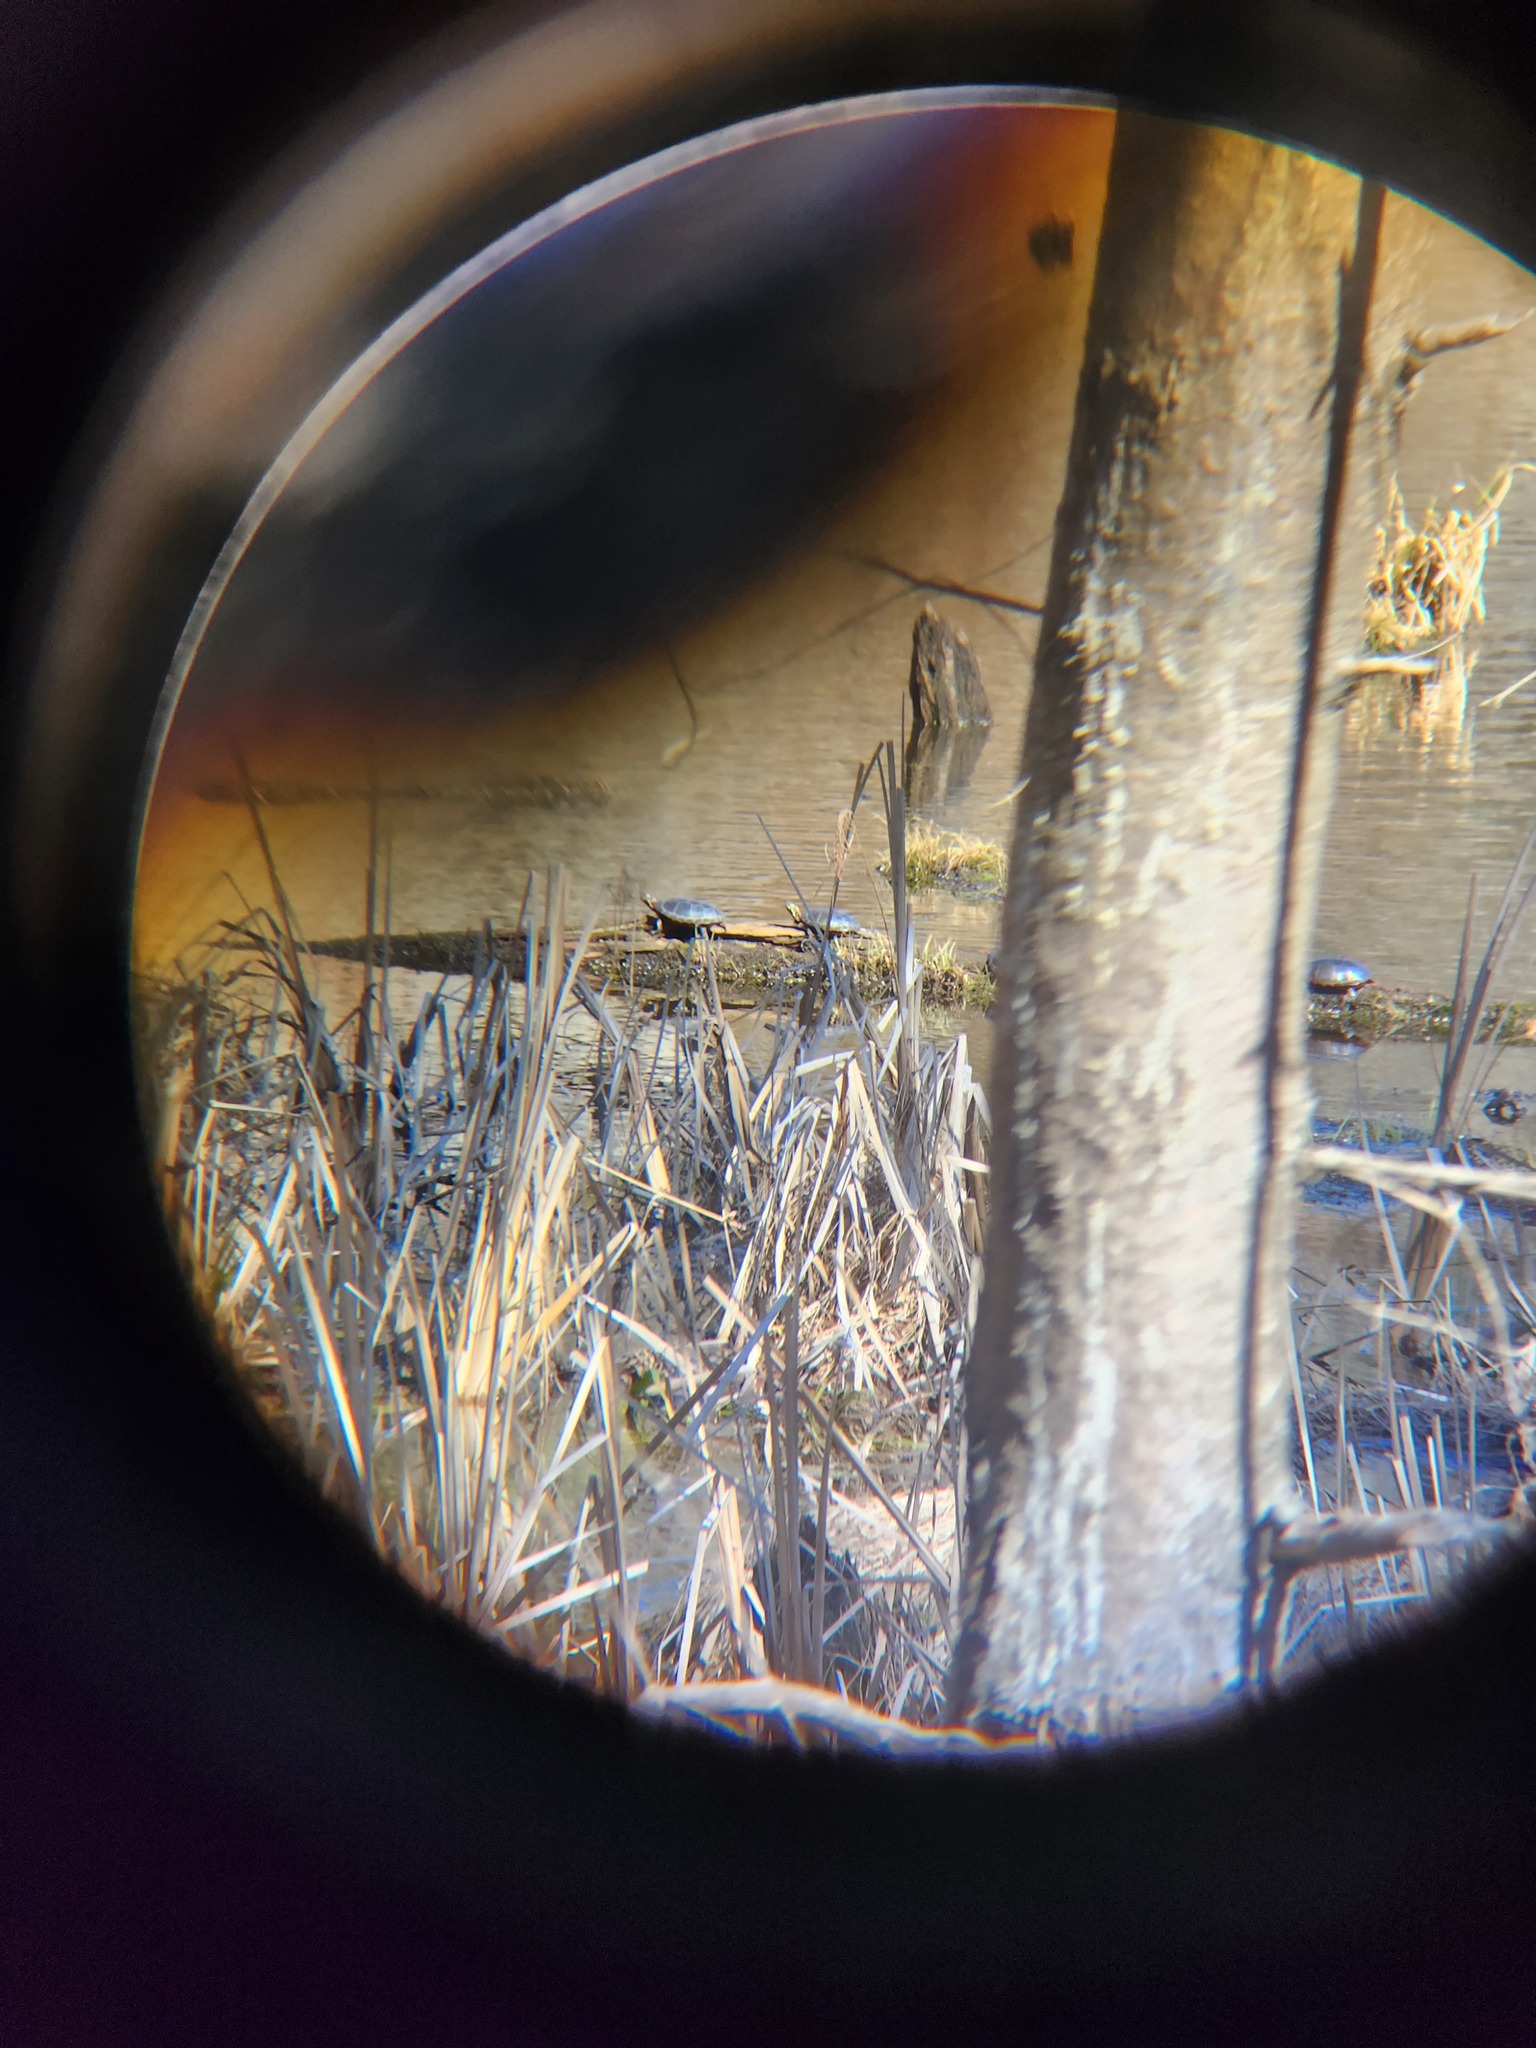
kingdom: Animalia
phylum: Chordata
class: Testudines
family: Emydidae
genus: Chrysemys
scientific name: Chrysemys picta
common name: Painted turtle
